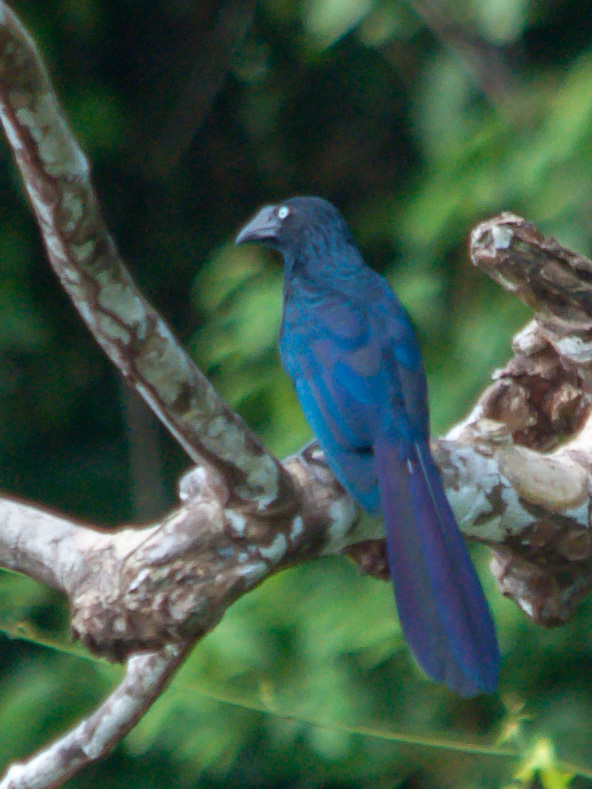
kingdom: Animalia
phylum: Chordata
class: Aves
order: Cuculiformes
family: Cuculidae
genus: Crotophaga
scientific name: Crotophaga major
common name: Greater ani
